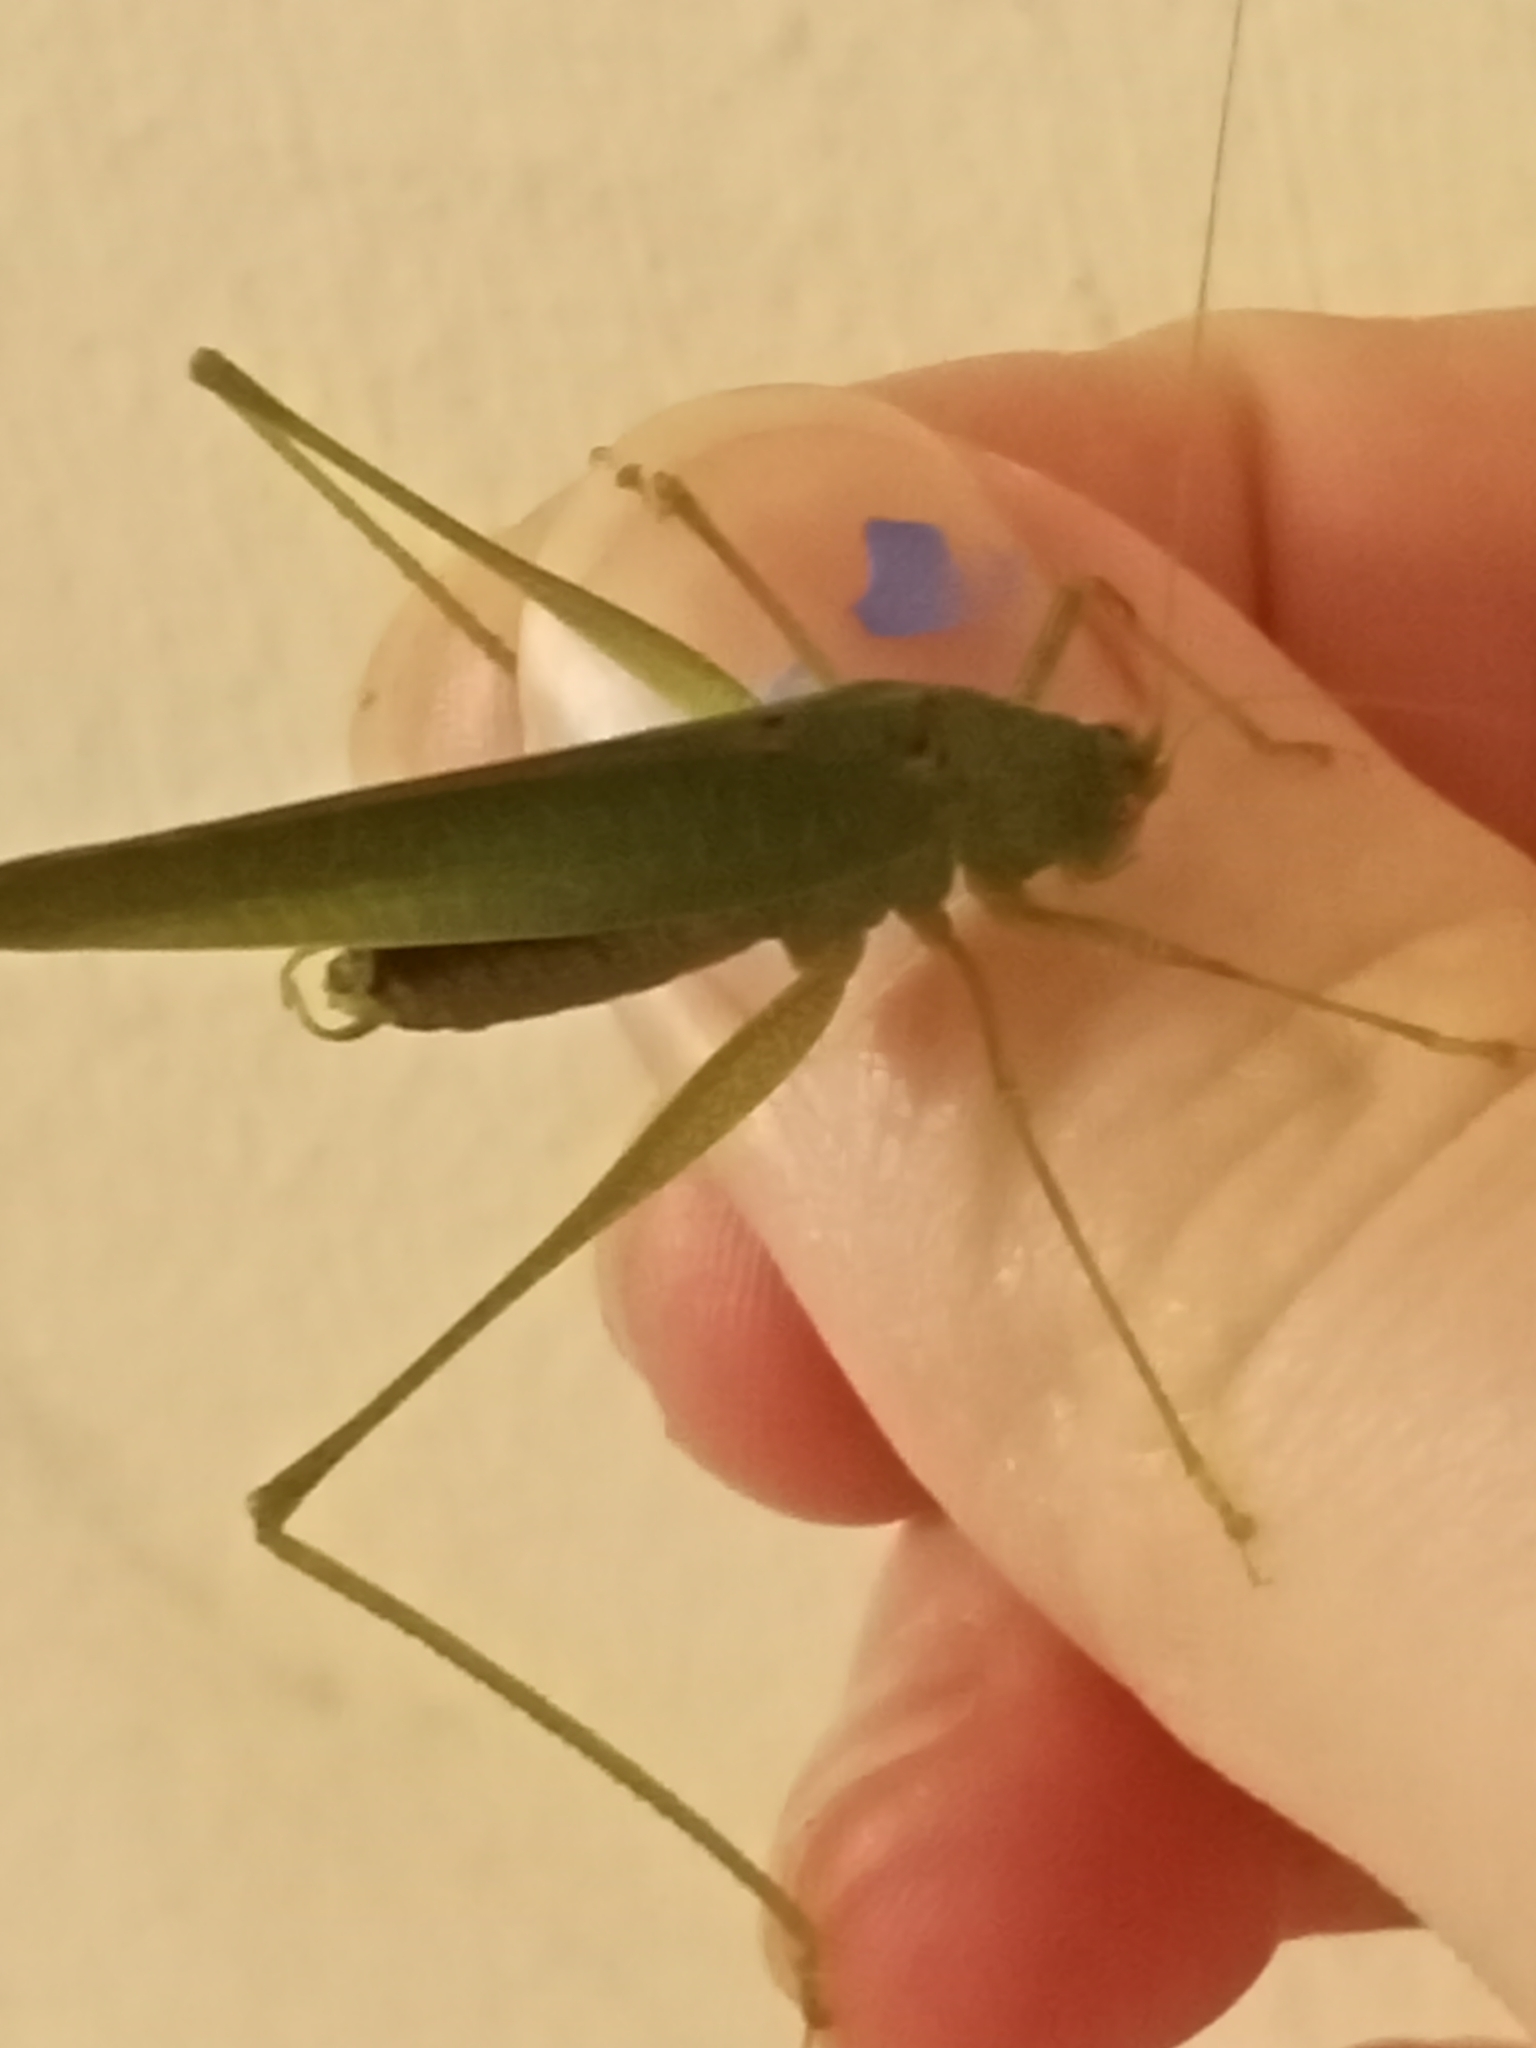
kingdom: Animalia
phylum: Arthropoda
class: Insecta
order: Orthoptera
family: Tettigoniidae
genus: Phaneroptera
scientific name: Phaneroptera nana
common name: Southern sickle bush-cricket
